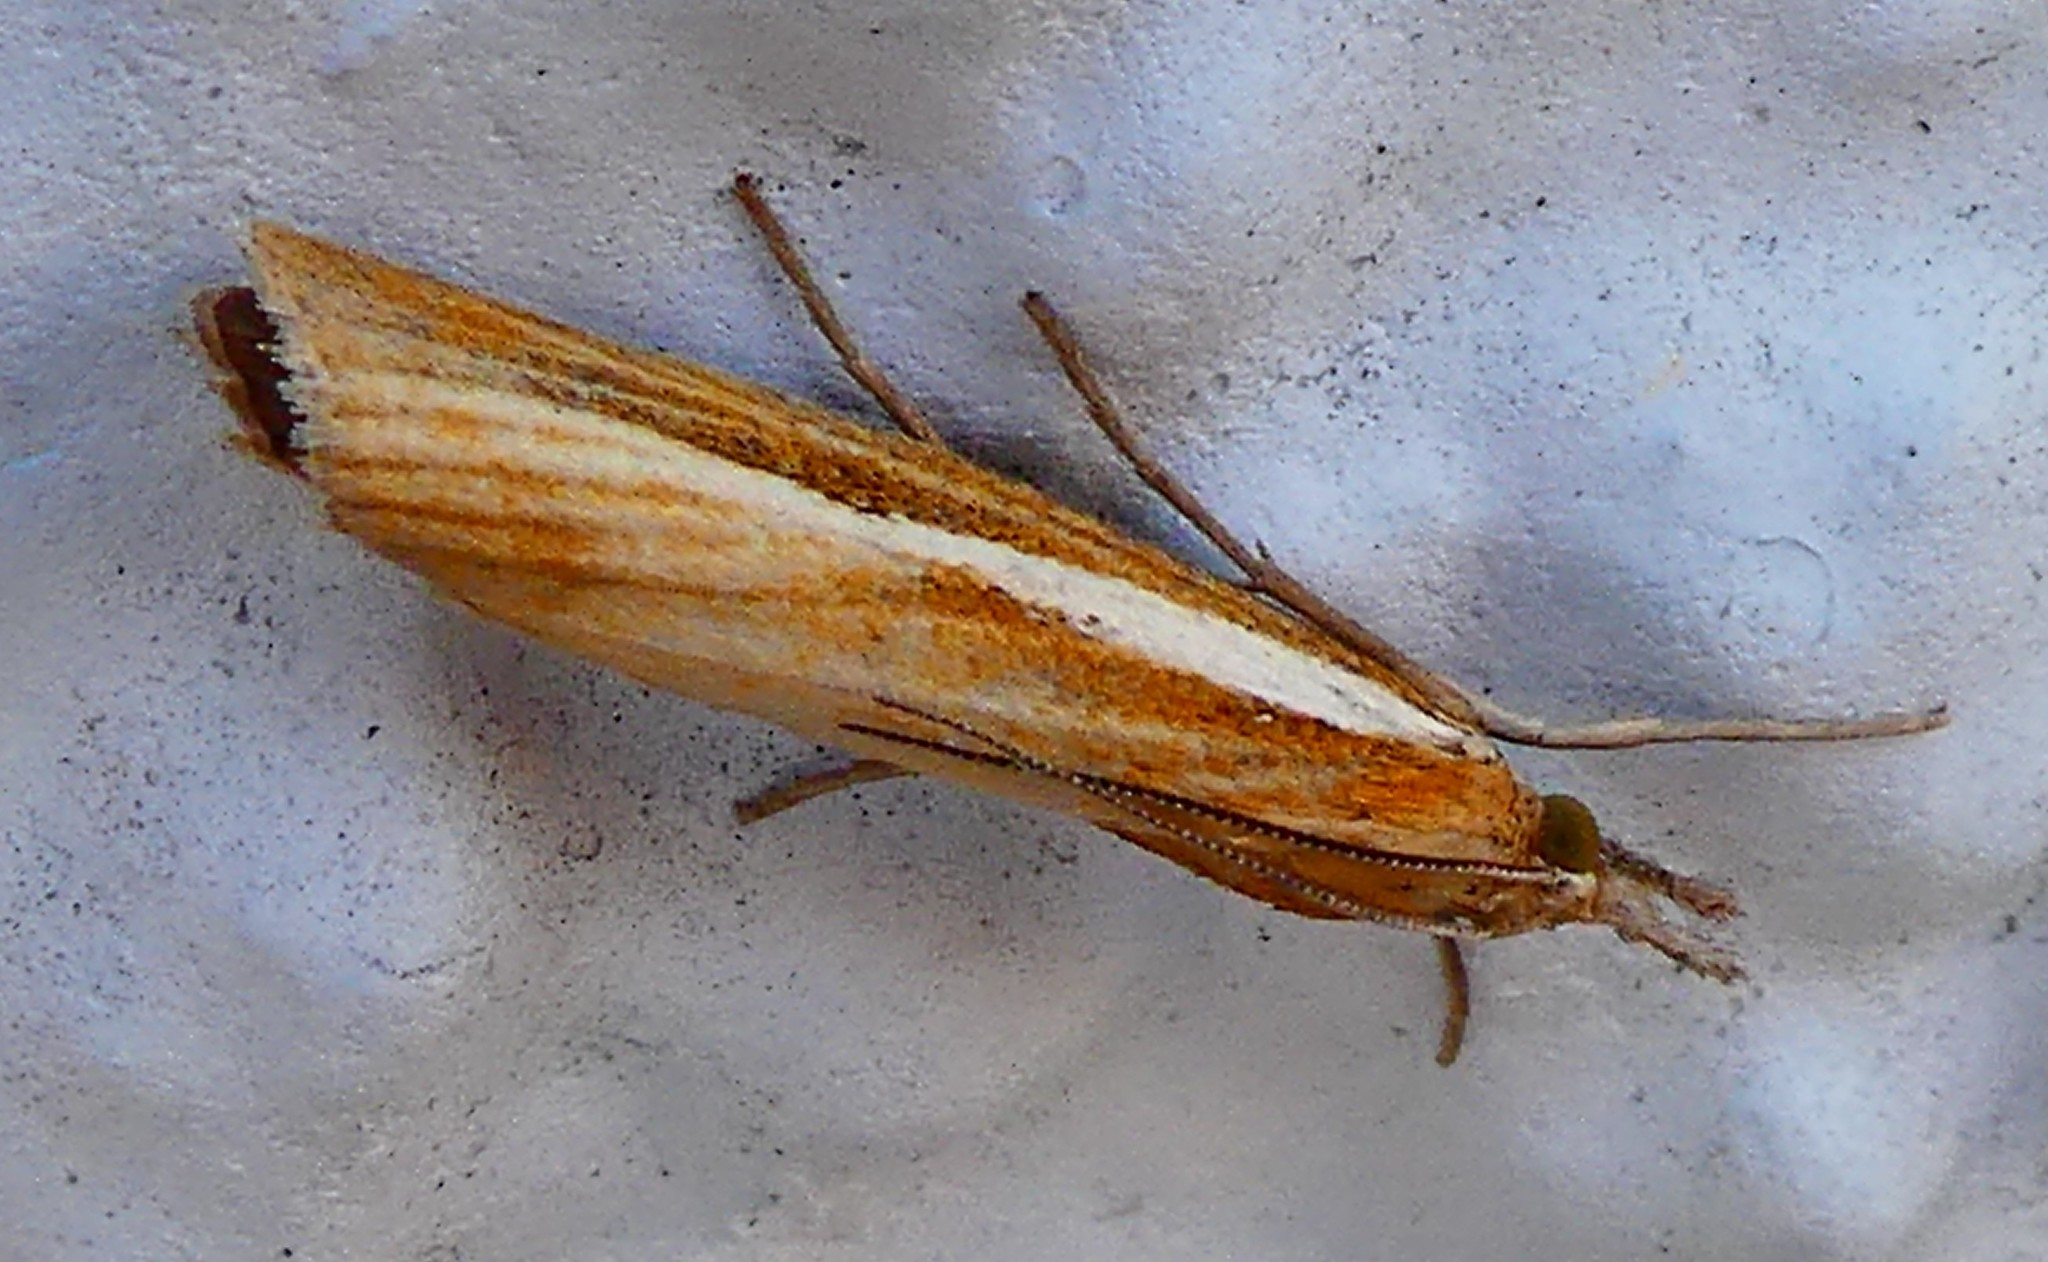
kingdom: Animalia
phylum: Arthropoda
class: Insecta
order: Lepidoptera
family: Crambidae
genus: Agriphila
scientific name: Agriphila tristellus
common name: Common grass-veneer
